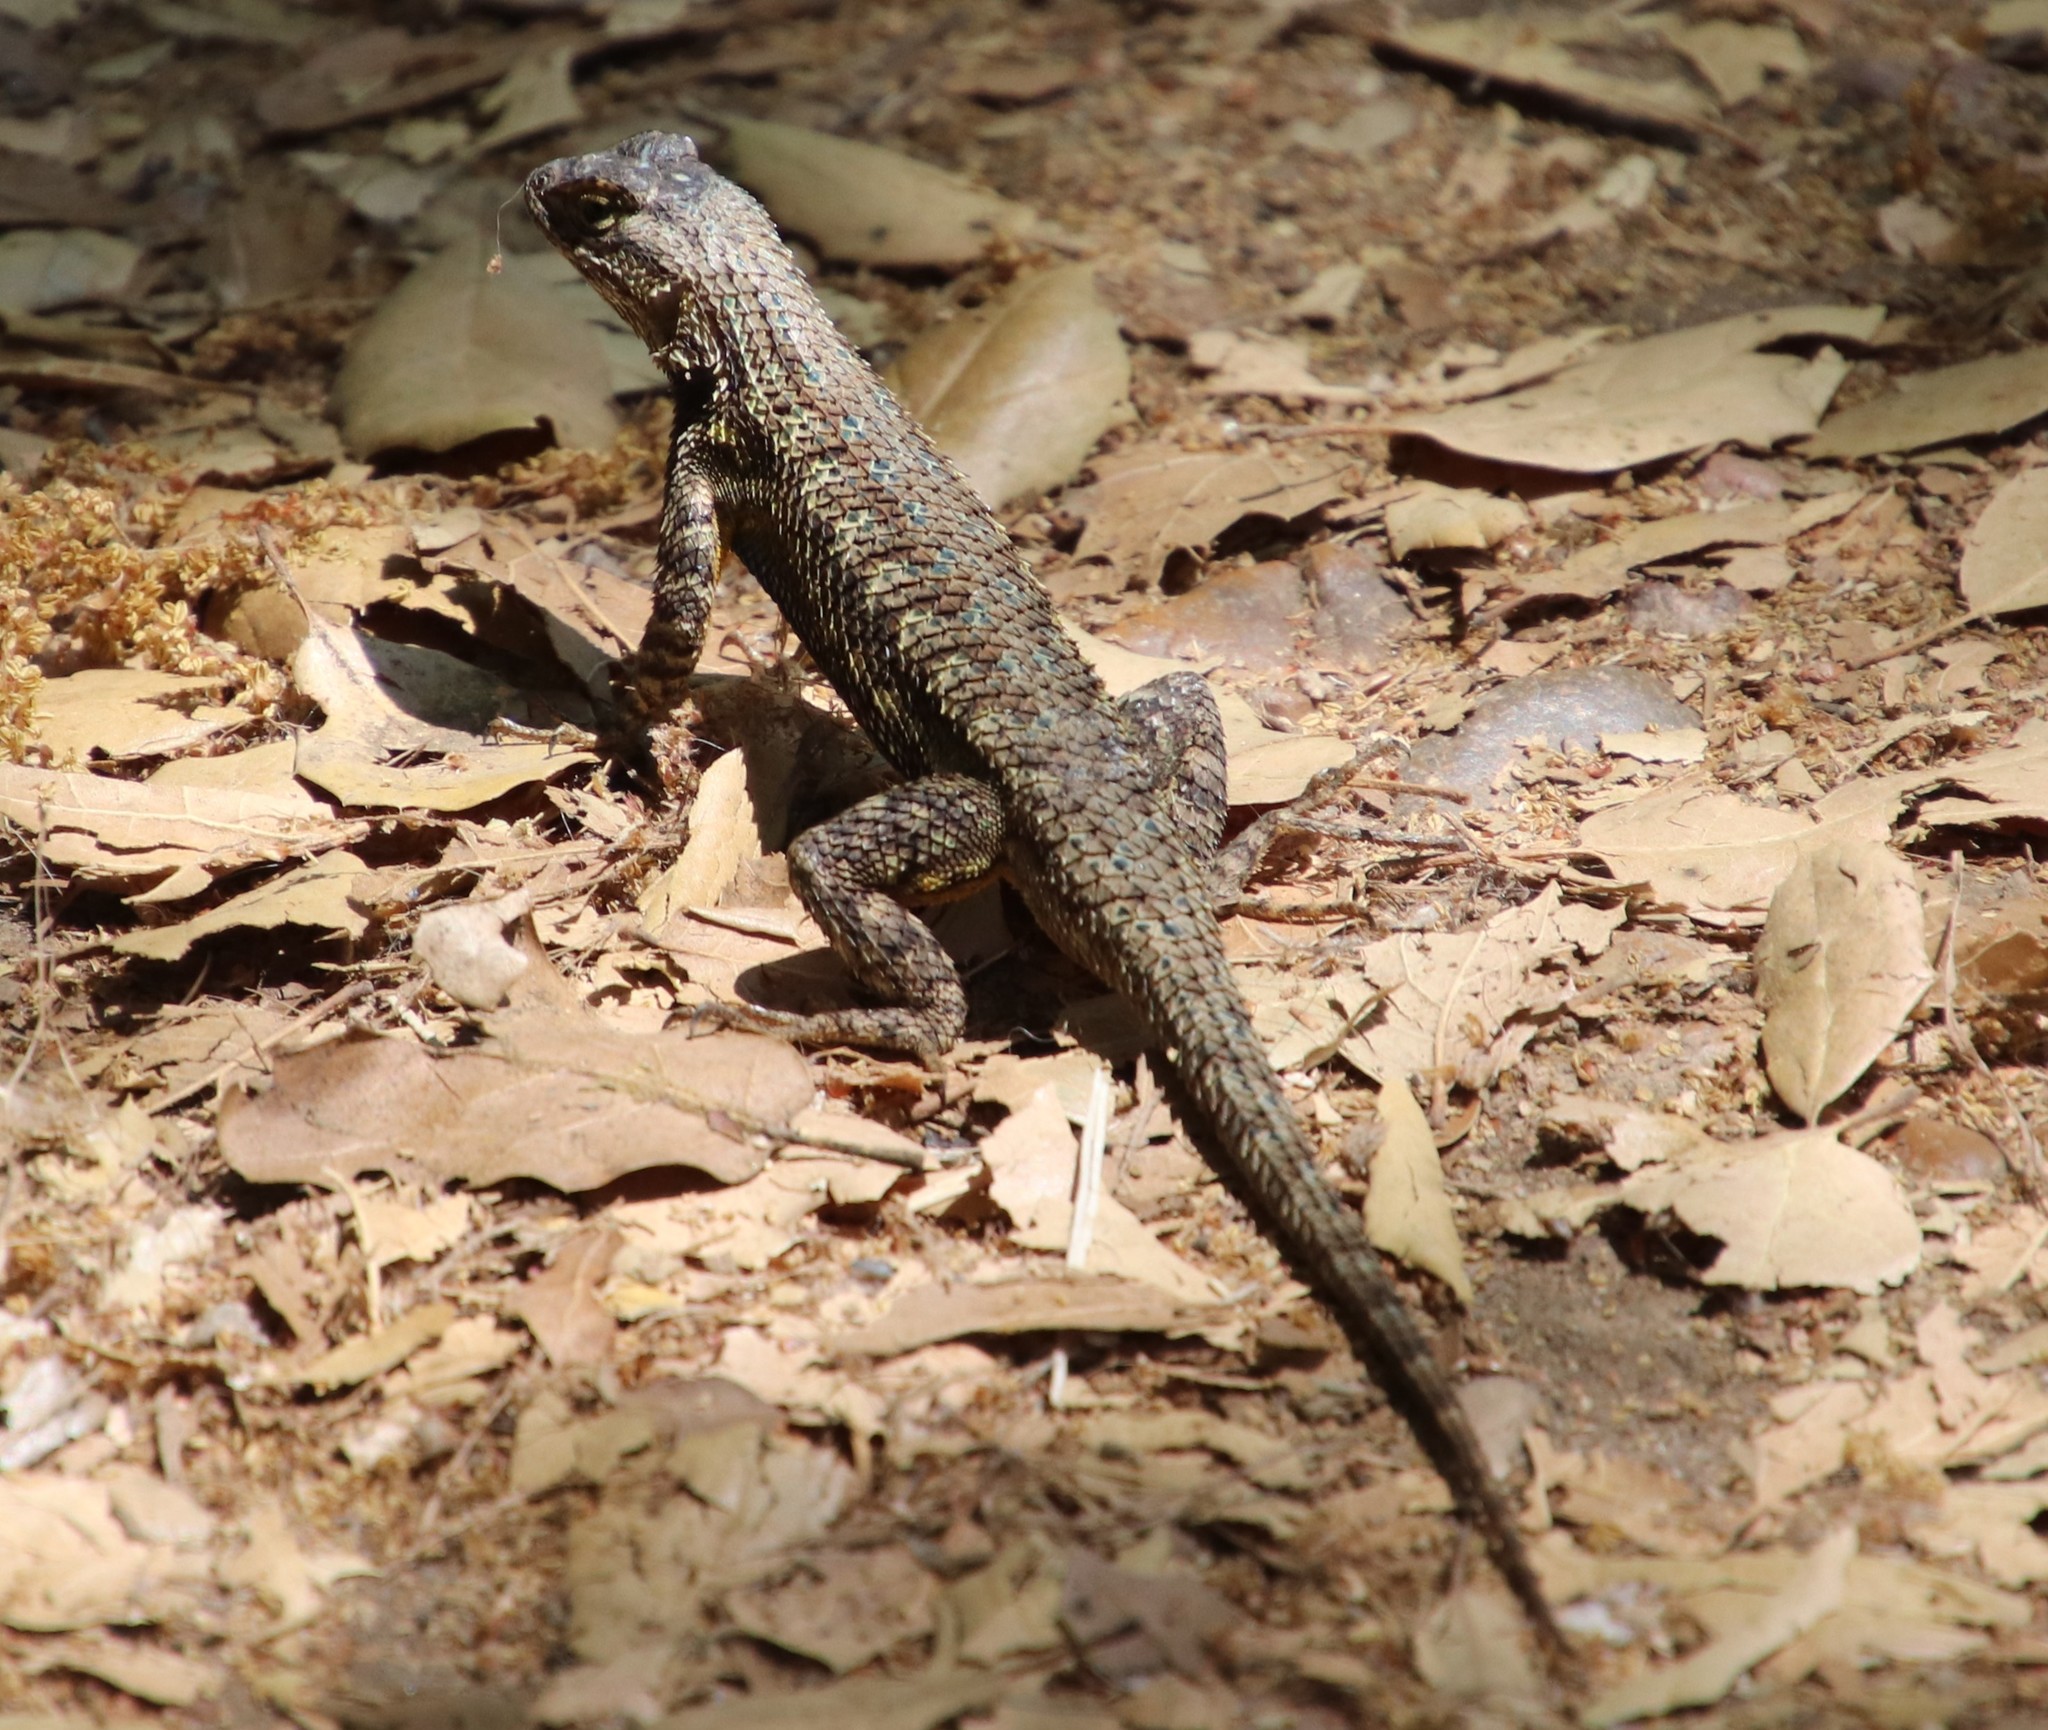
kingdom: Animalia
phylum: Chordata
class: Squamata
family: Phrynosomatidae
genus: Sceloporus
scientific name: Sceloporus occidentalis
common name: Western fence lizard
